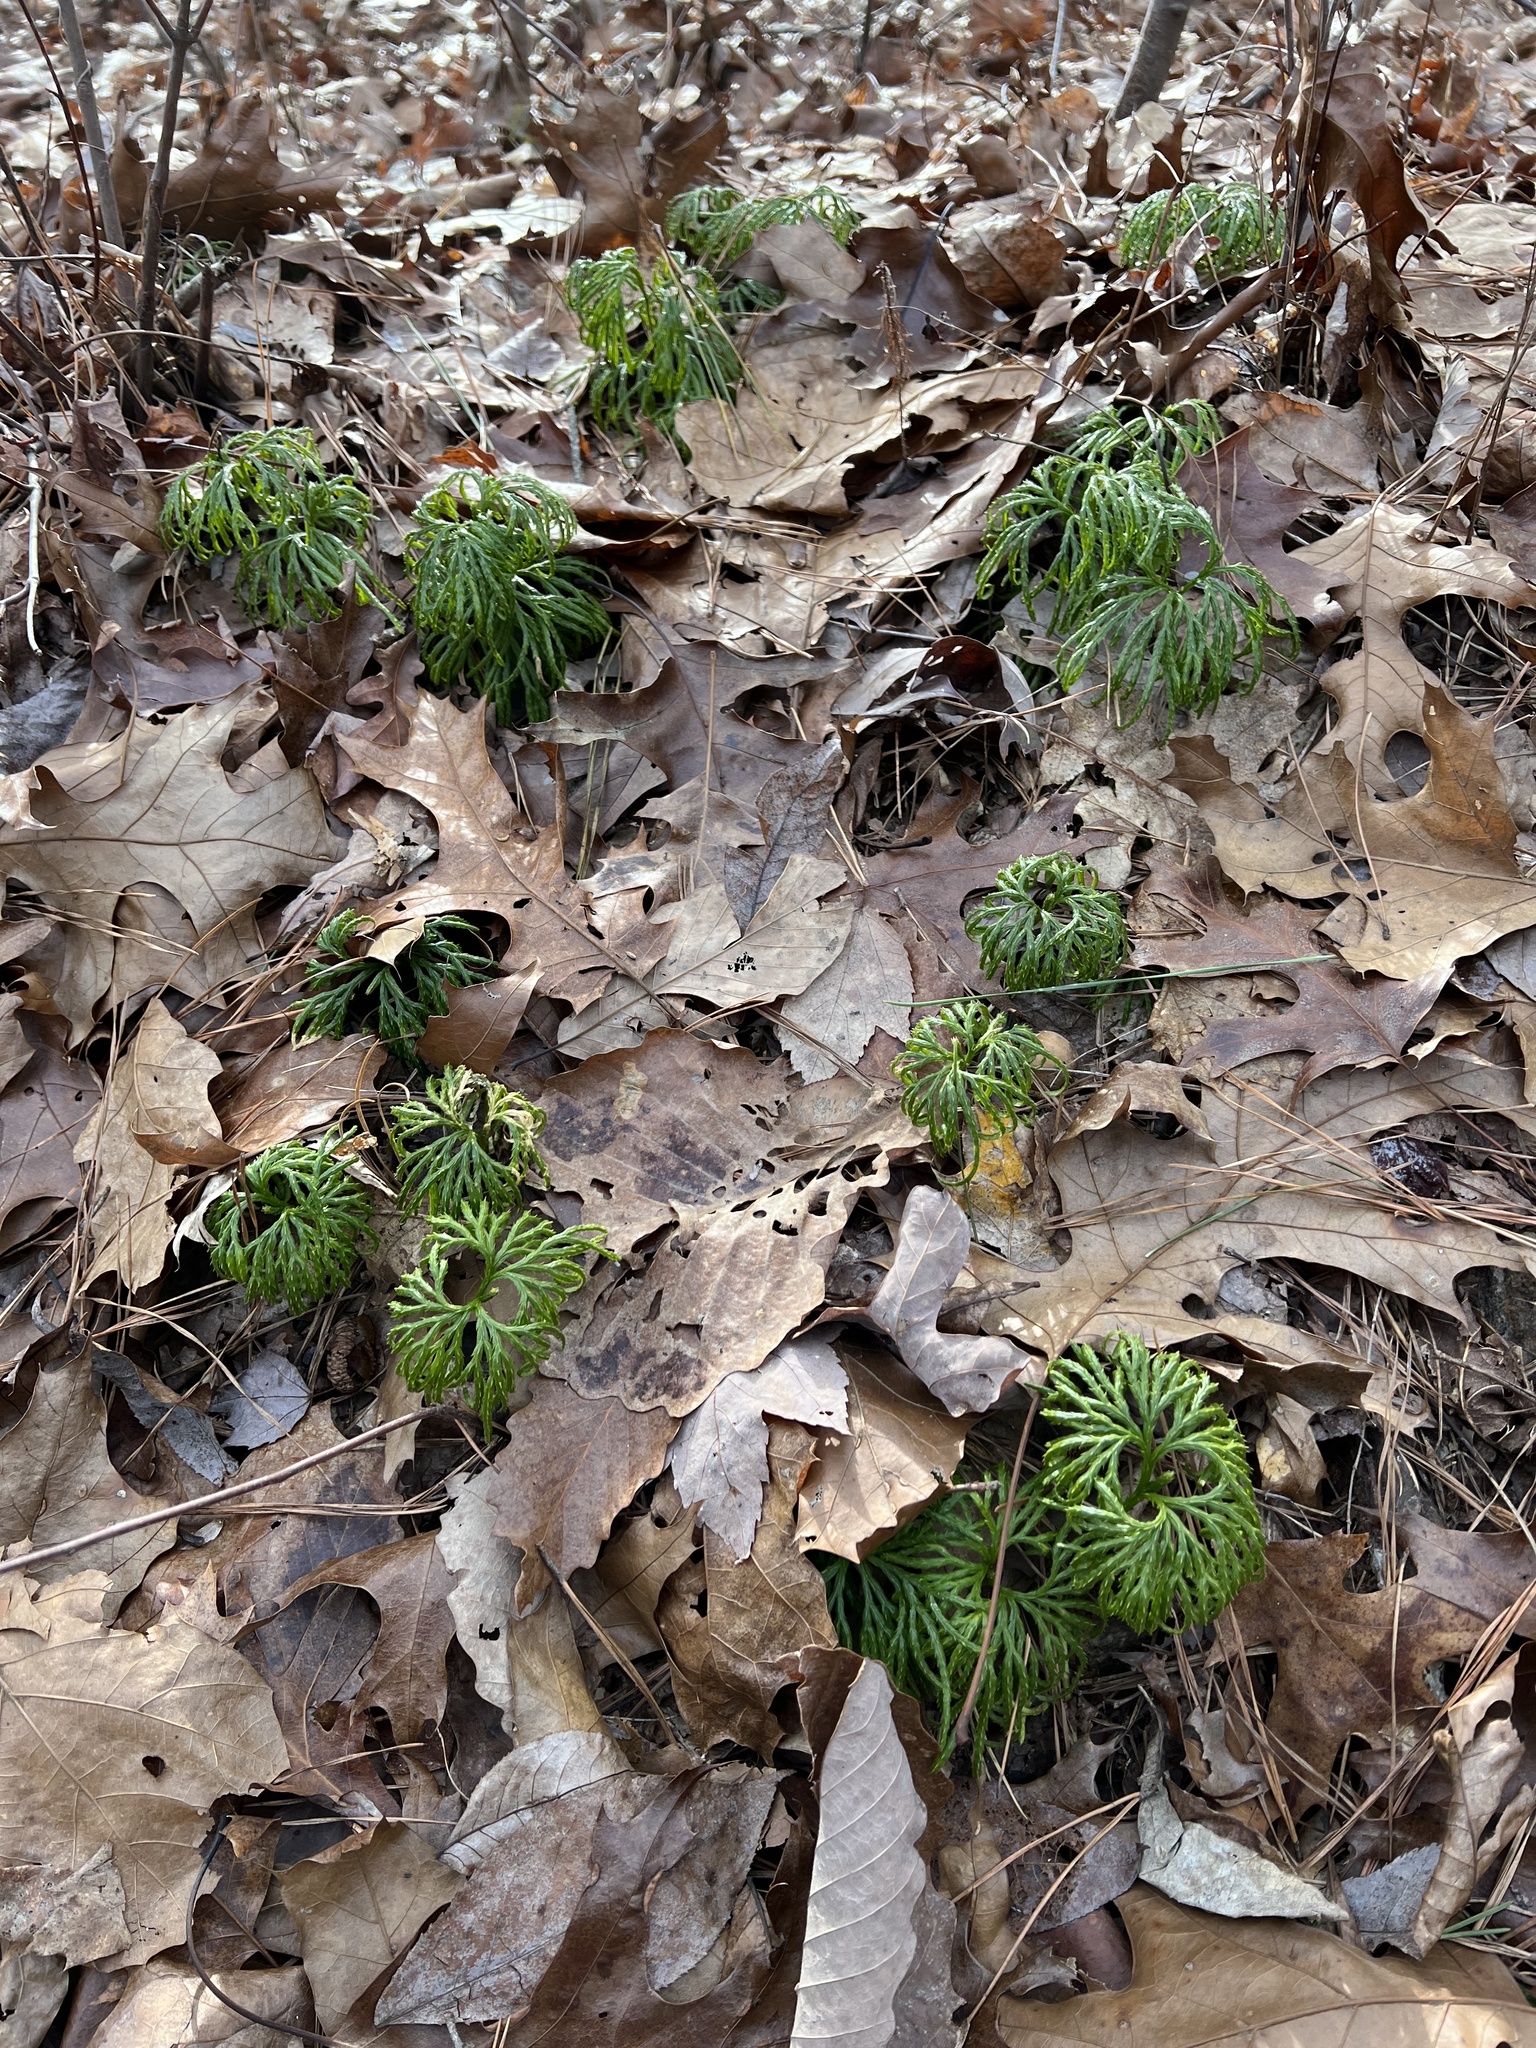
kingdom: Plantae
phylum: Tracheophyta
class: Lycopodiopsida
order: Lycopodiales
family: Lycopodiaceae
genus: Diphasiastrum
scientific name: Diphasiastrum digitatum
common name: Southern running-pine
